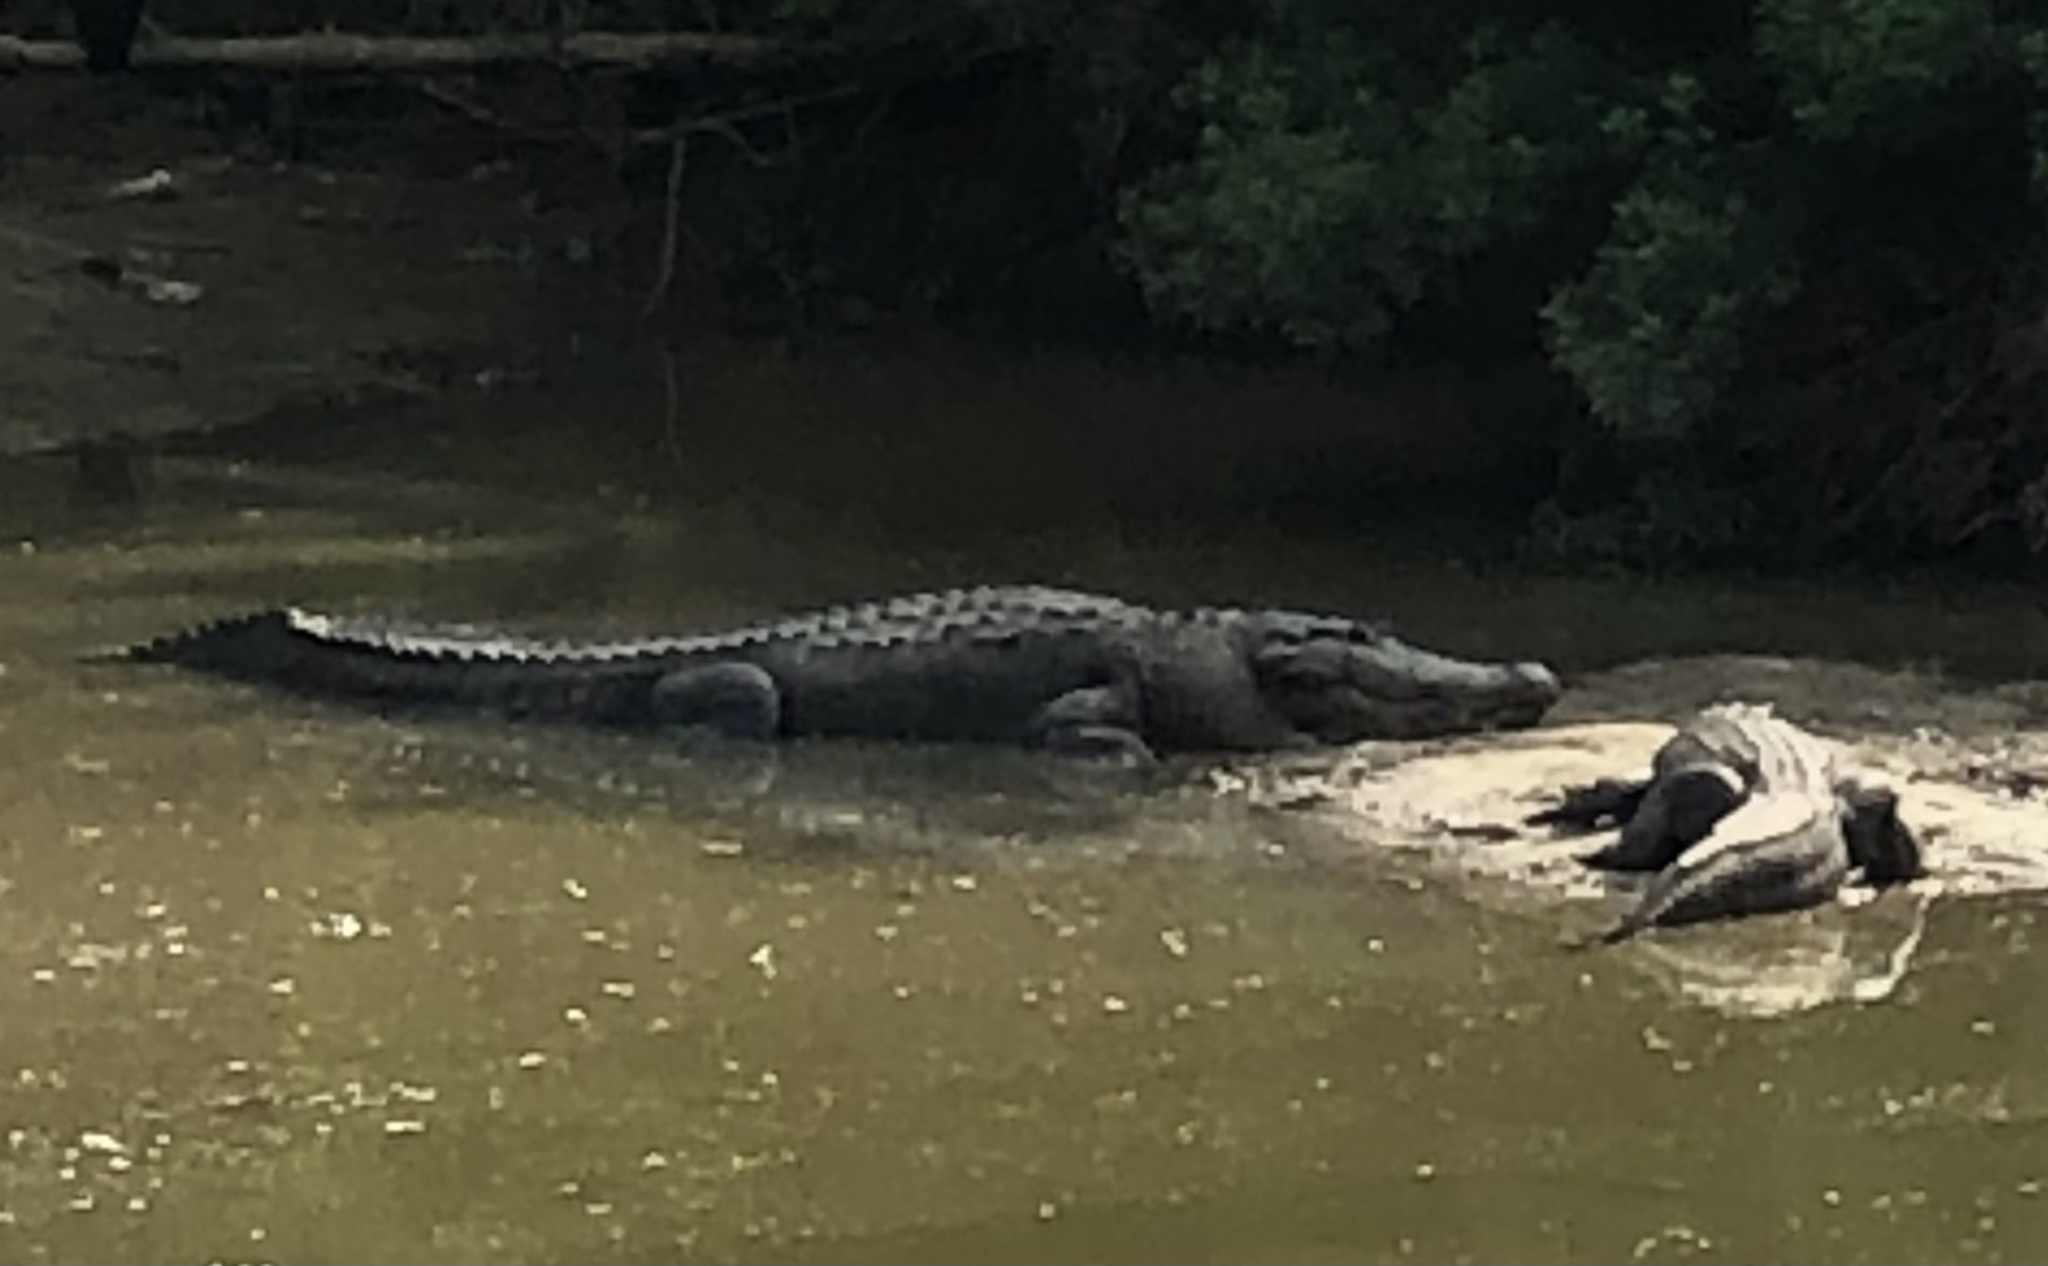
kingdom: Animalia
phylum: Chordata
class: Crocodylia
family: Alligatoridae
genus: Alligator
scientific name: Alligator mississippiensis
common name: American alligator
